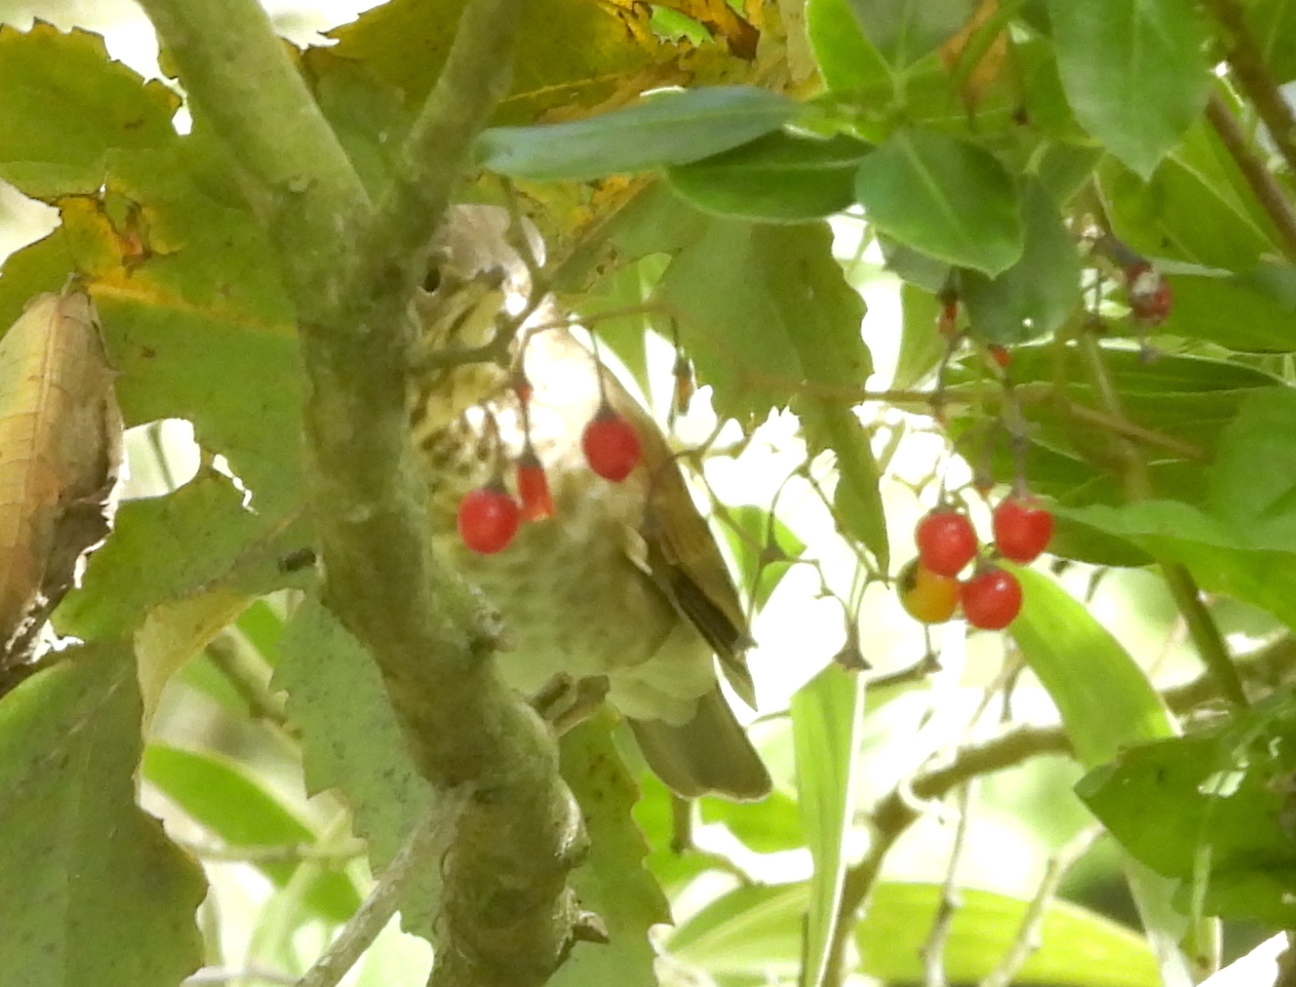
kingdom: Animalia
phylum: Chordata
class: Aves
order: Passeriformes
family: Turdidae
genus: Catharus
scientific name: Catharus ustulatus
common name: Swainson's thrush
